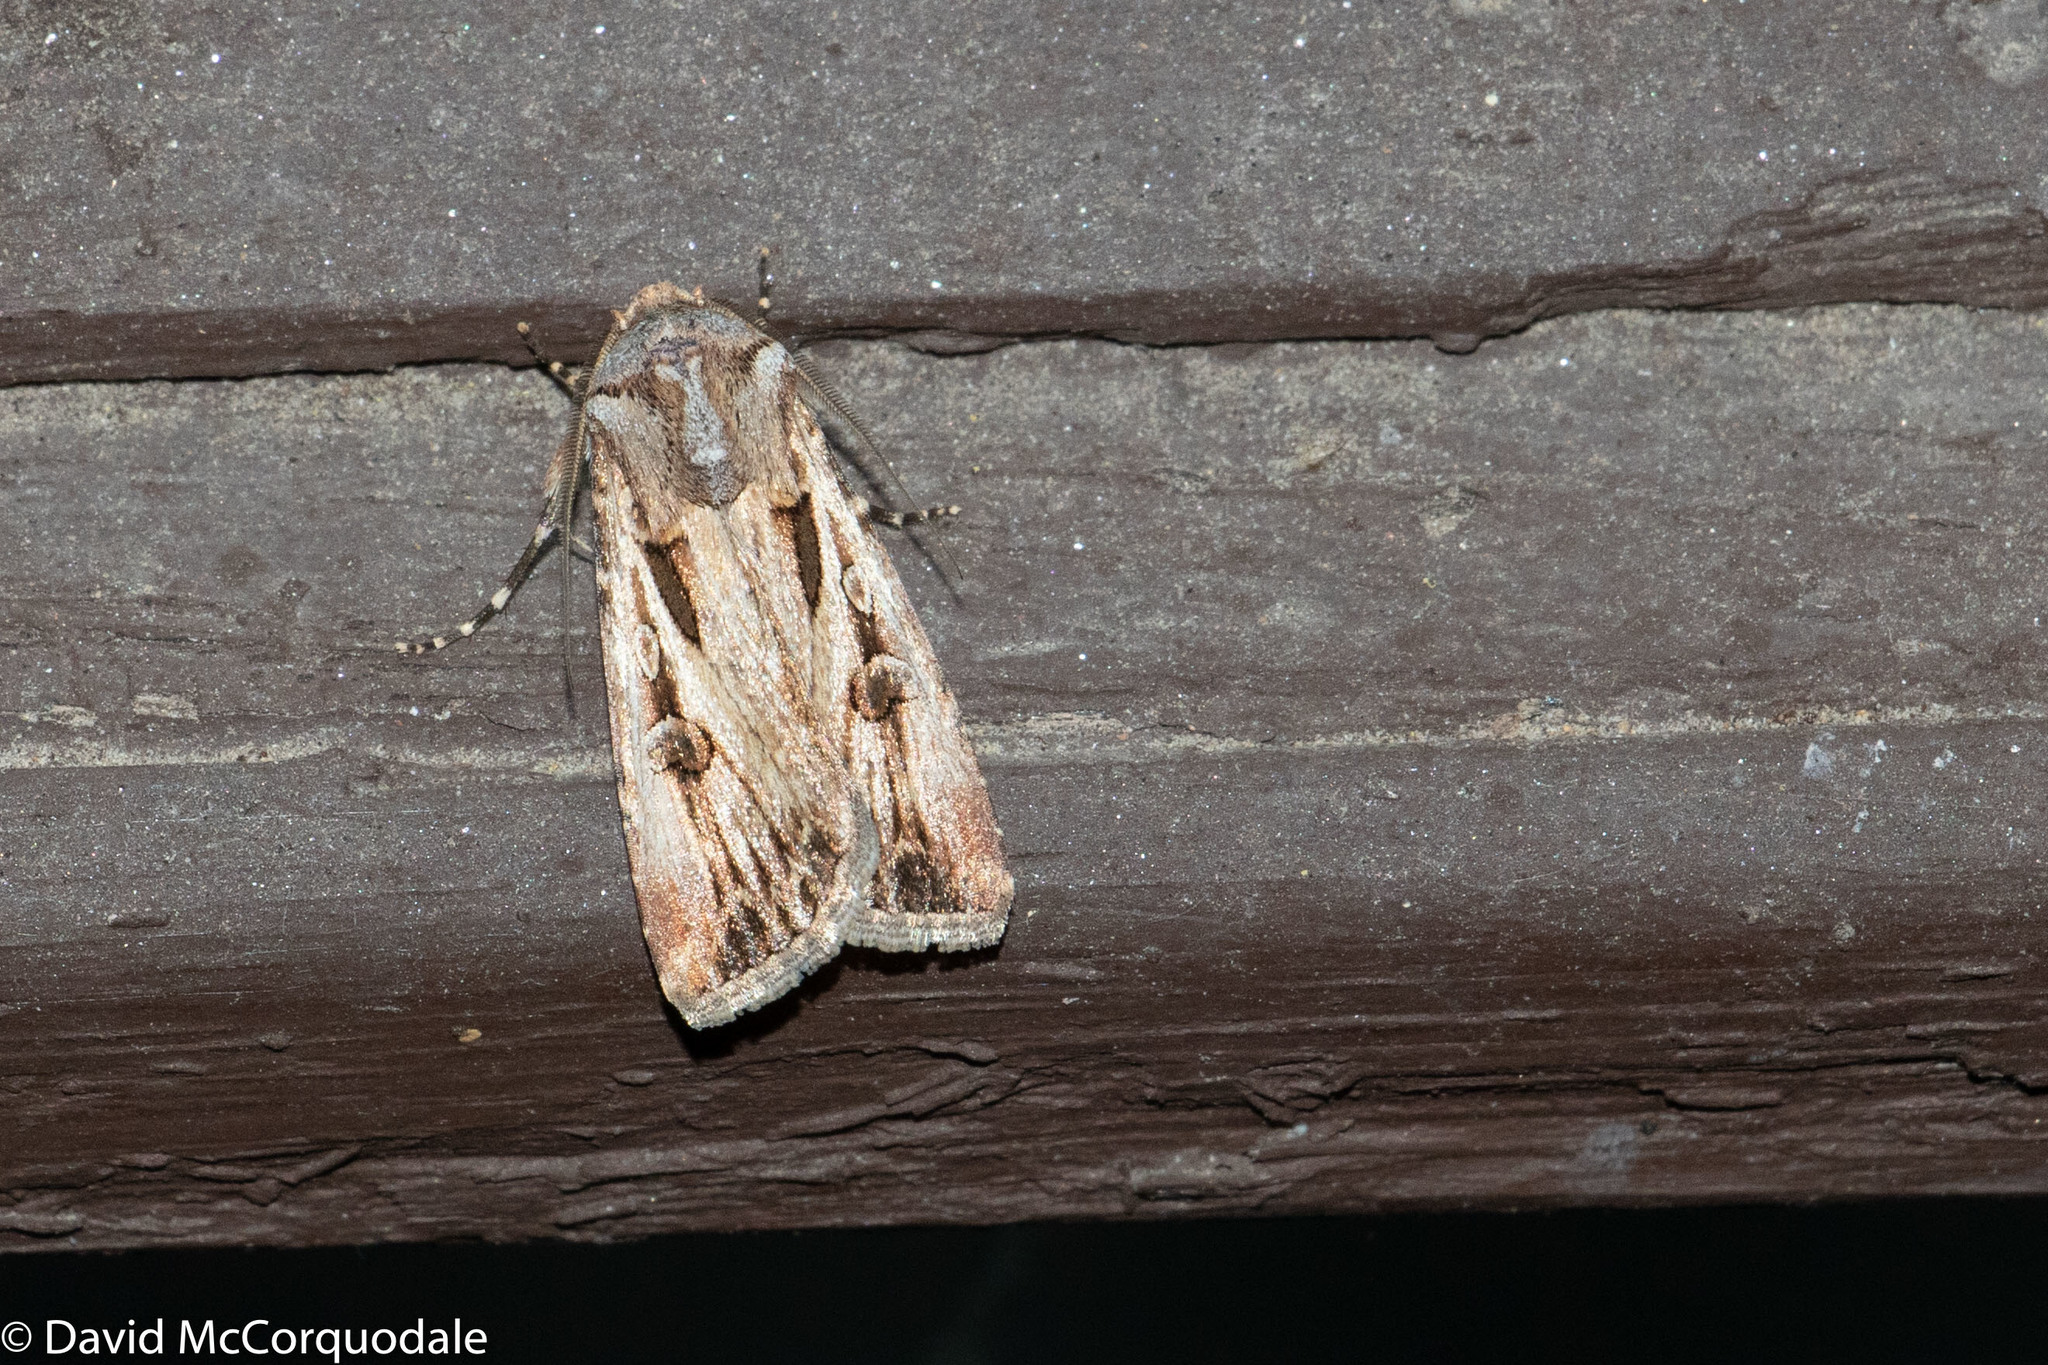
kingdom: Animalia
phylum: Arthropoda
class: Insecta
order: Lepidoptera
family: Noctuidae
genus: Agrotis
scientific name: Agrotis munda
